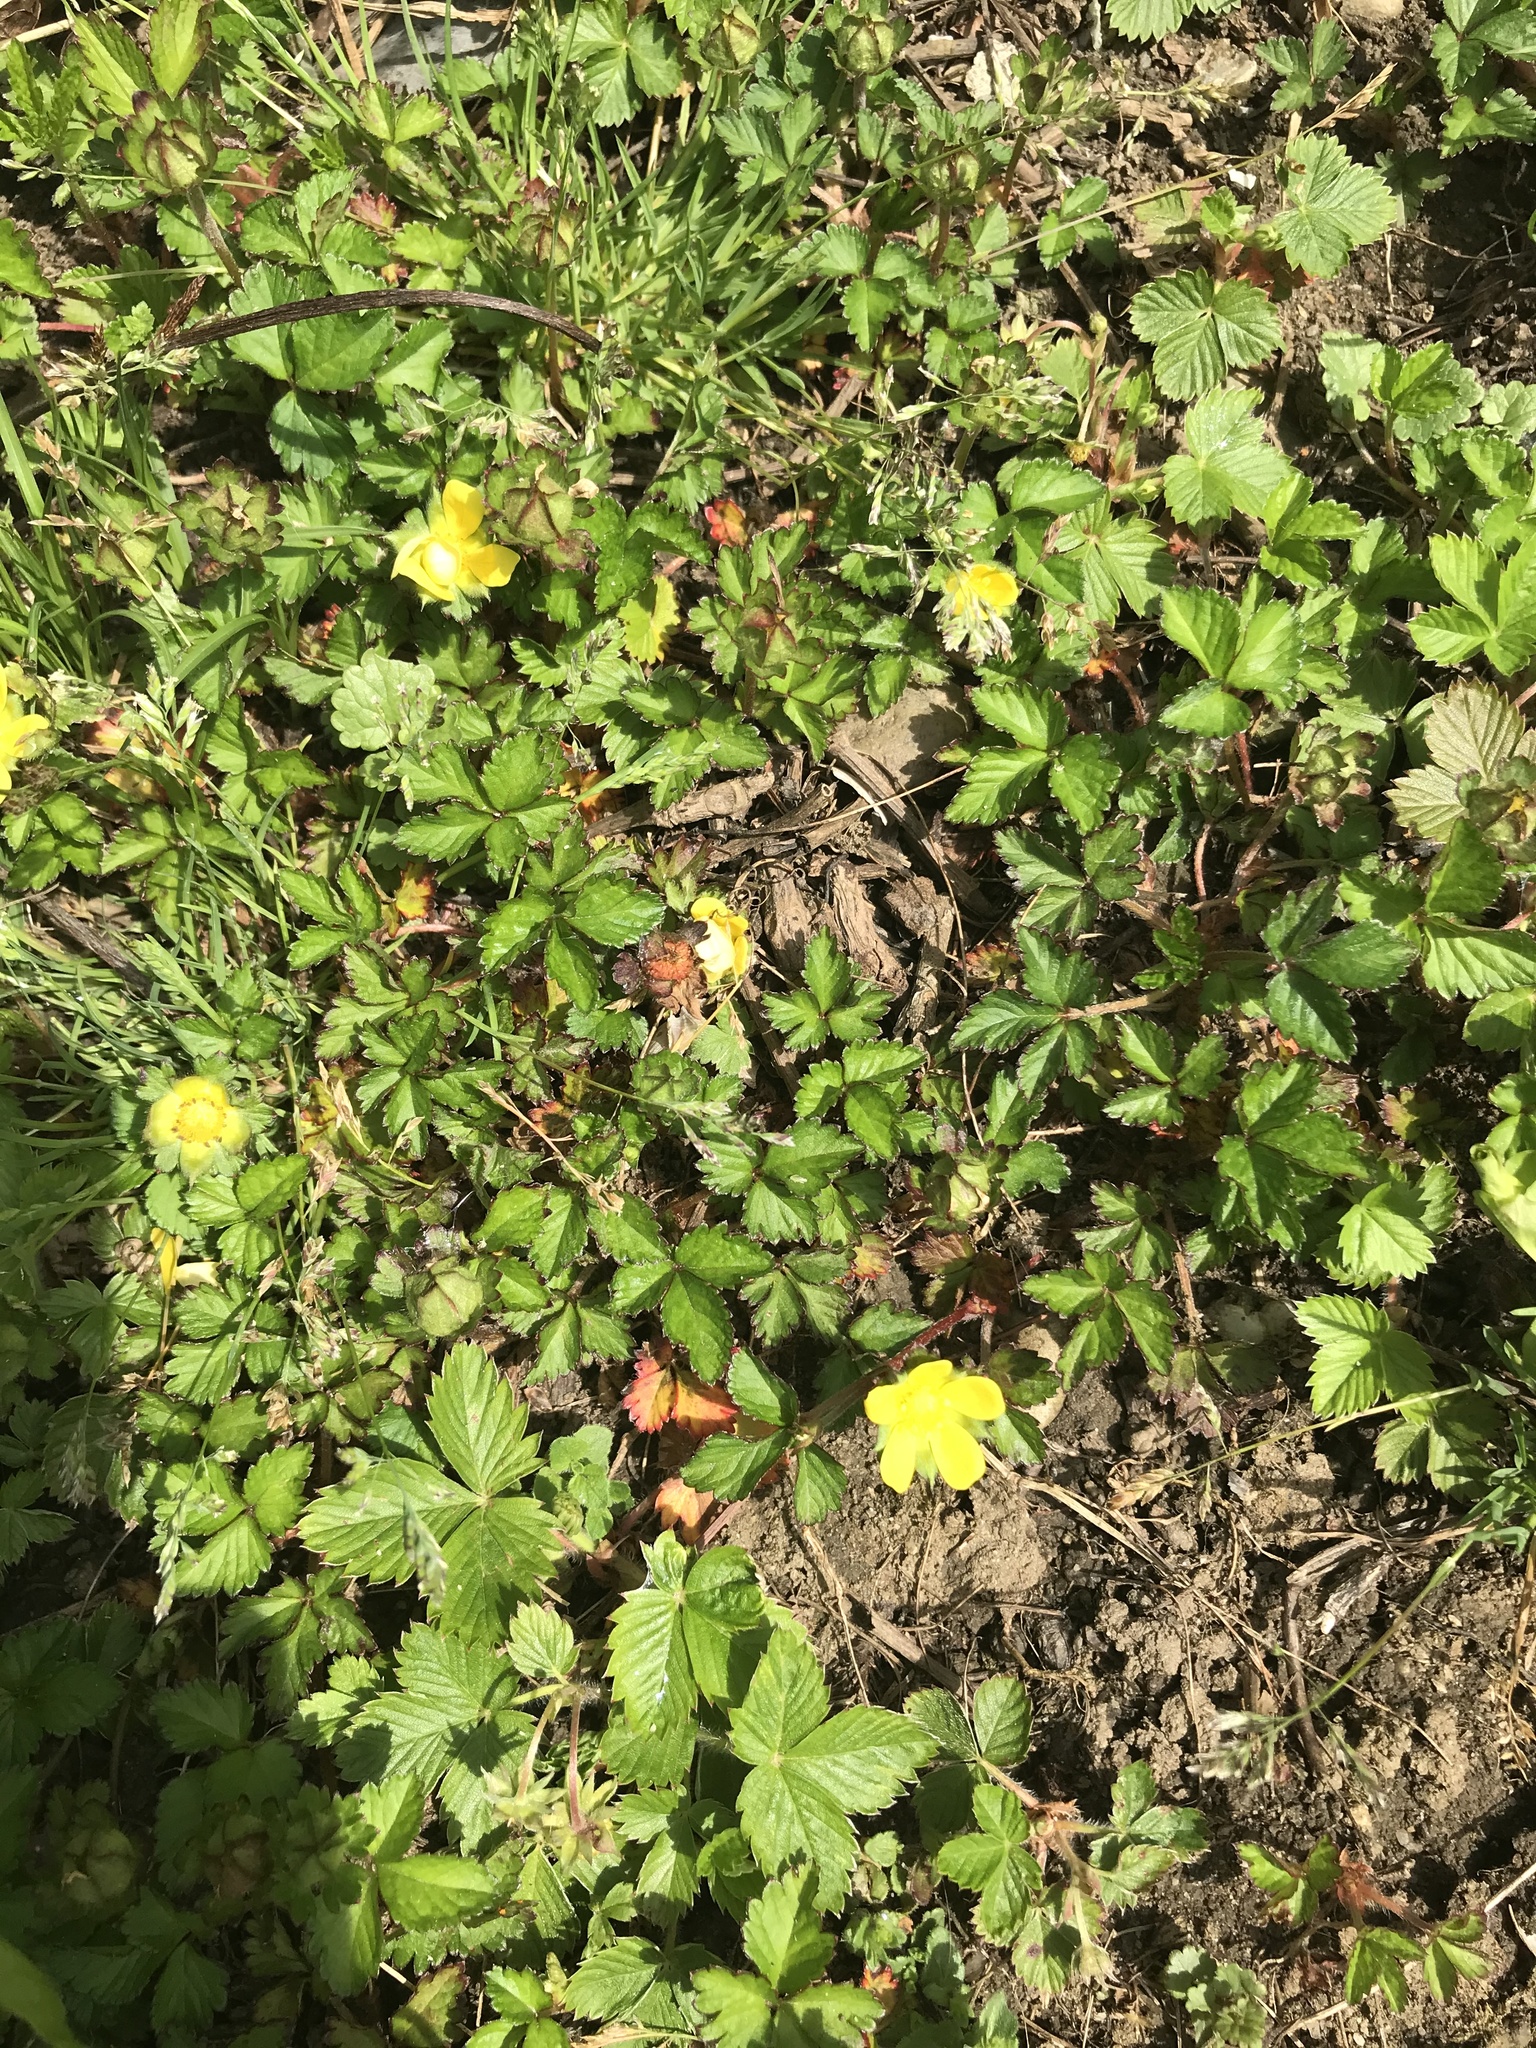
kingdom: Plantae
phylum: Tracheophyta
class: Magnoliopsida
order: Rosales
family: Rosaceae
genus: Potentilla
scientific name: Potentilla indica
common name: Yellow-flowered strawberry
